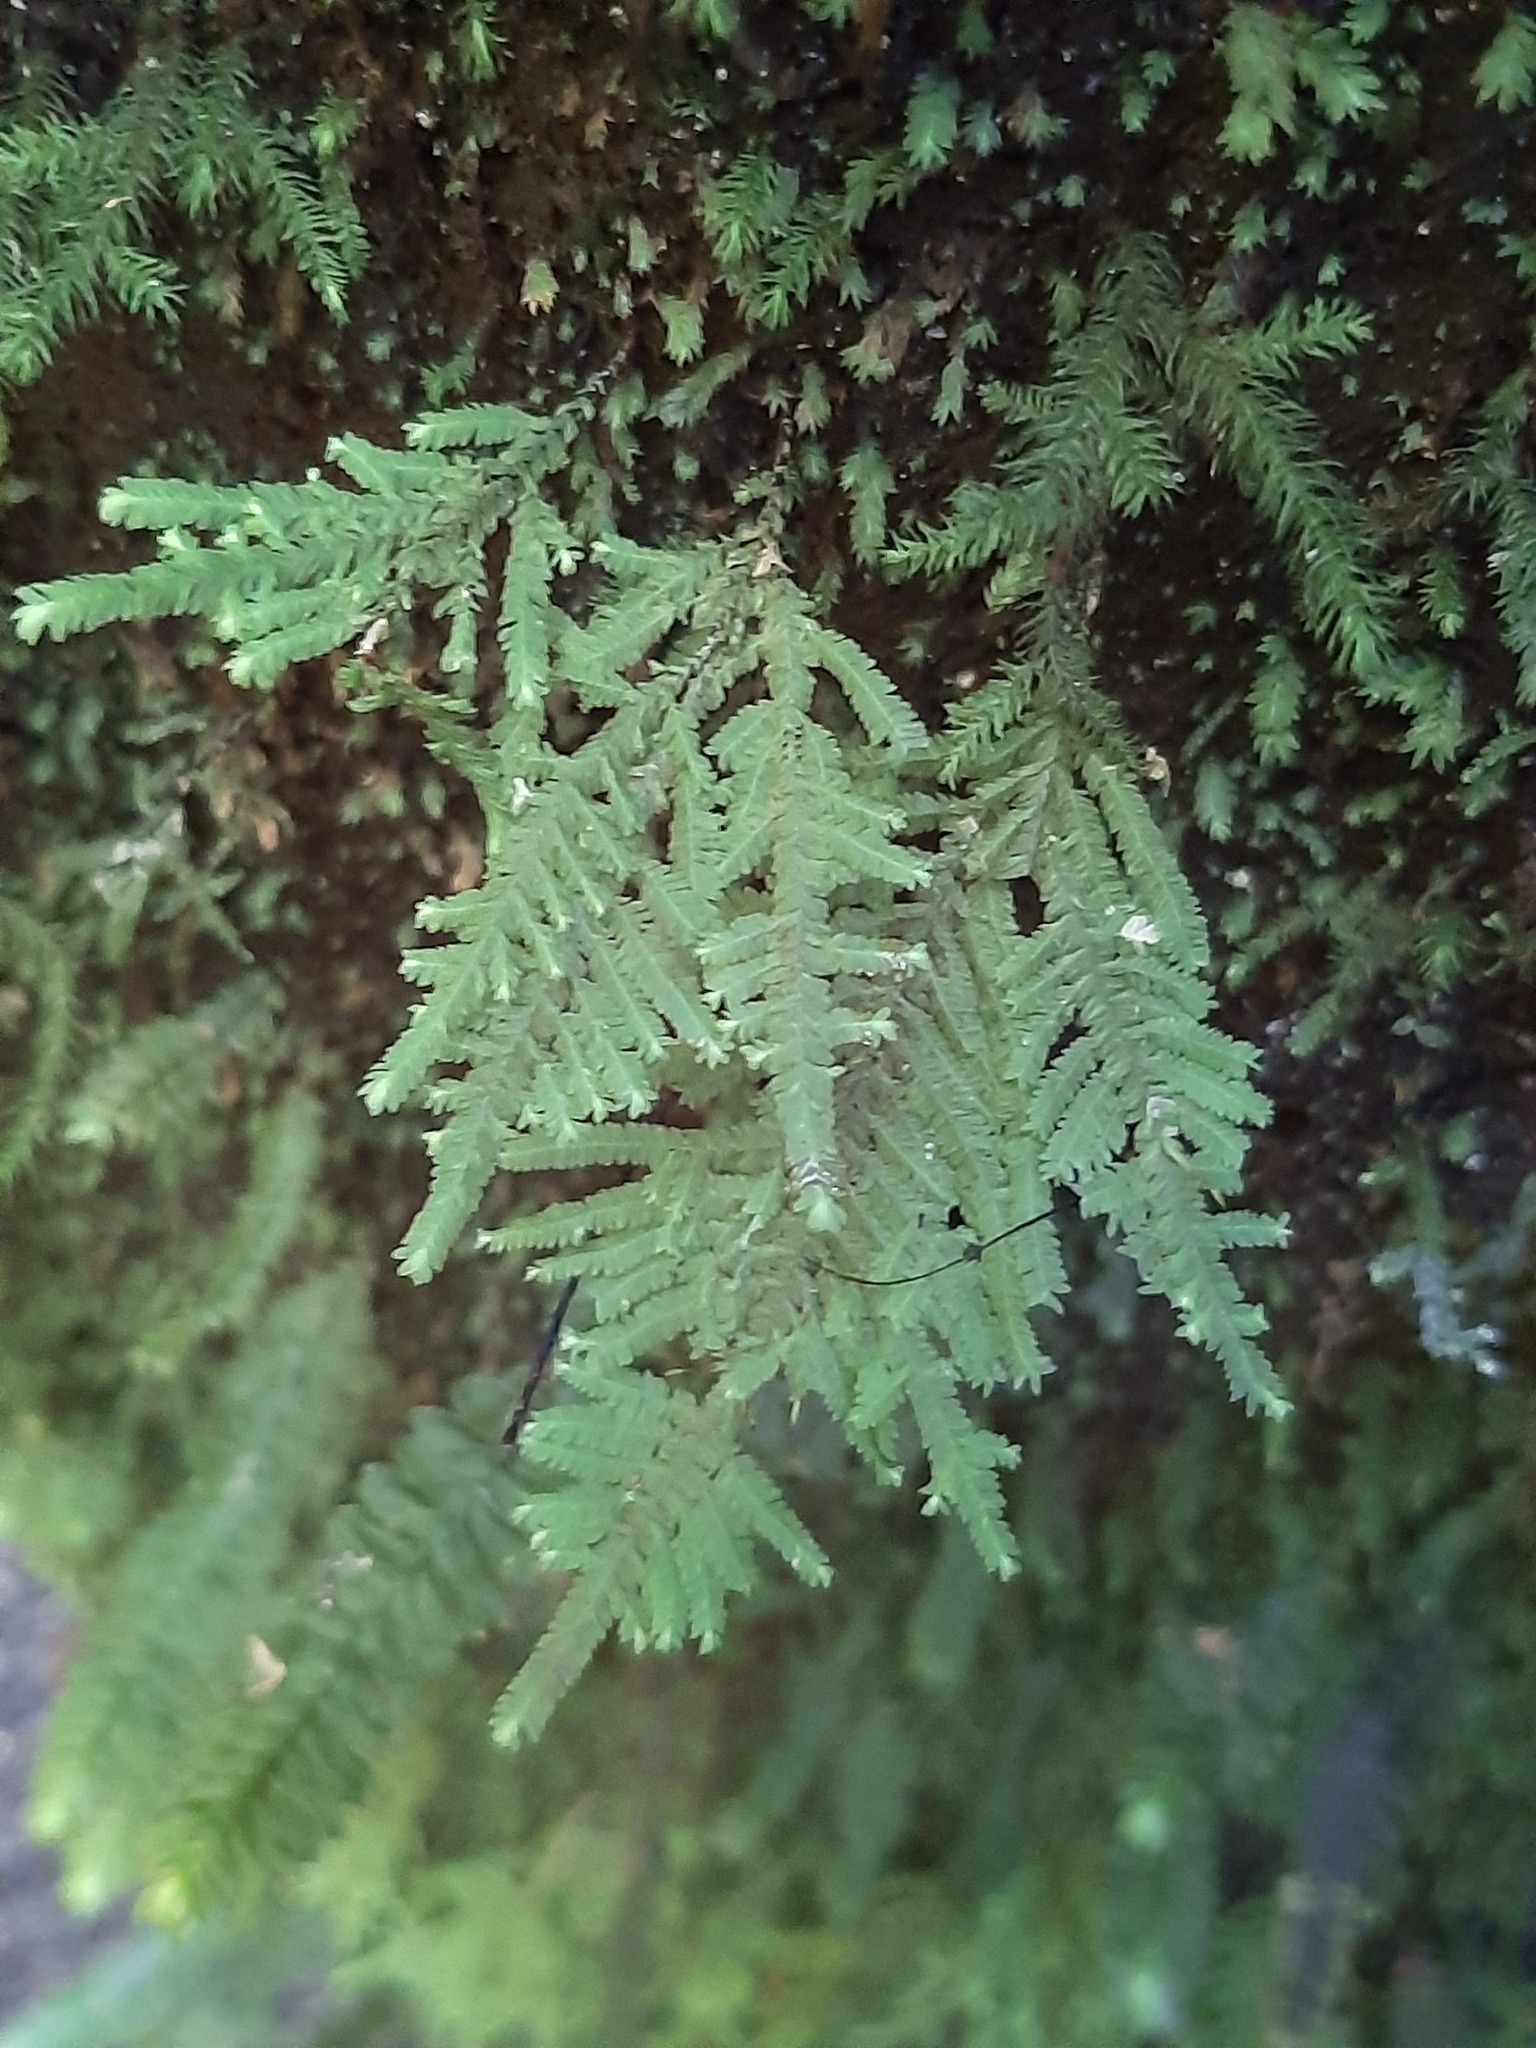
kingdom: Plantae
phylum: Bryophyta
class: Bryopsida
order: Hypopterygiales
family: Hypopterygiaceae
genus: Lopidium
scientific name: Lopidium concinnum
